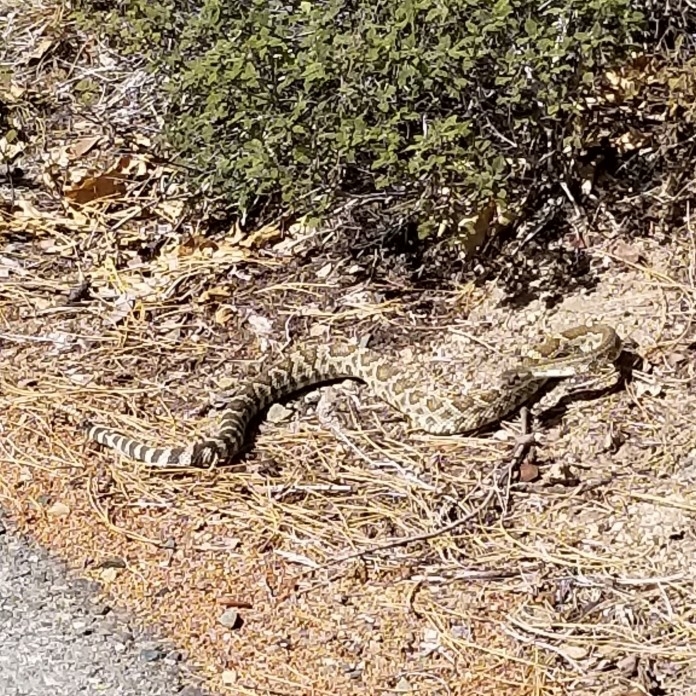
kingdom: Animalia
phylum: Chordata
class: Squamata
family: Viperidae
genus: Crotalus
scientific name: Crotalus oreganus
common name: Abyssus
